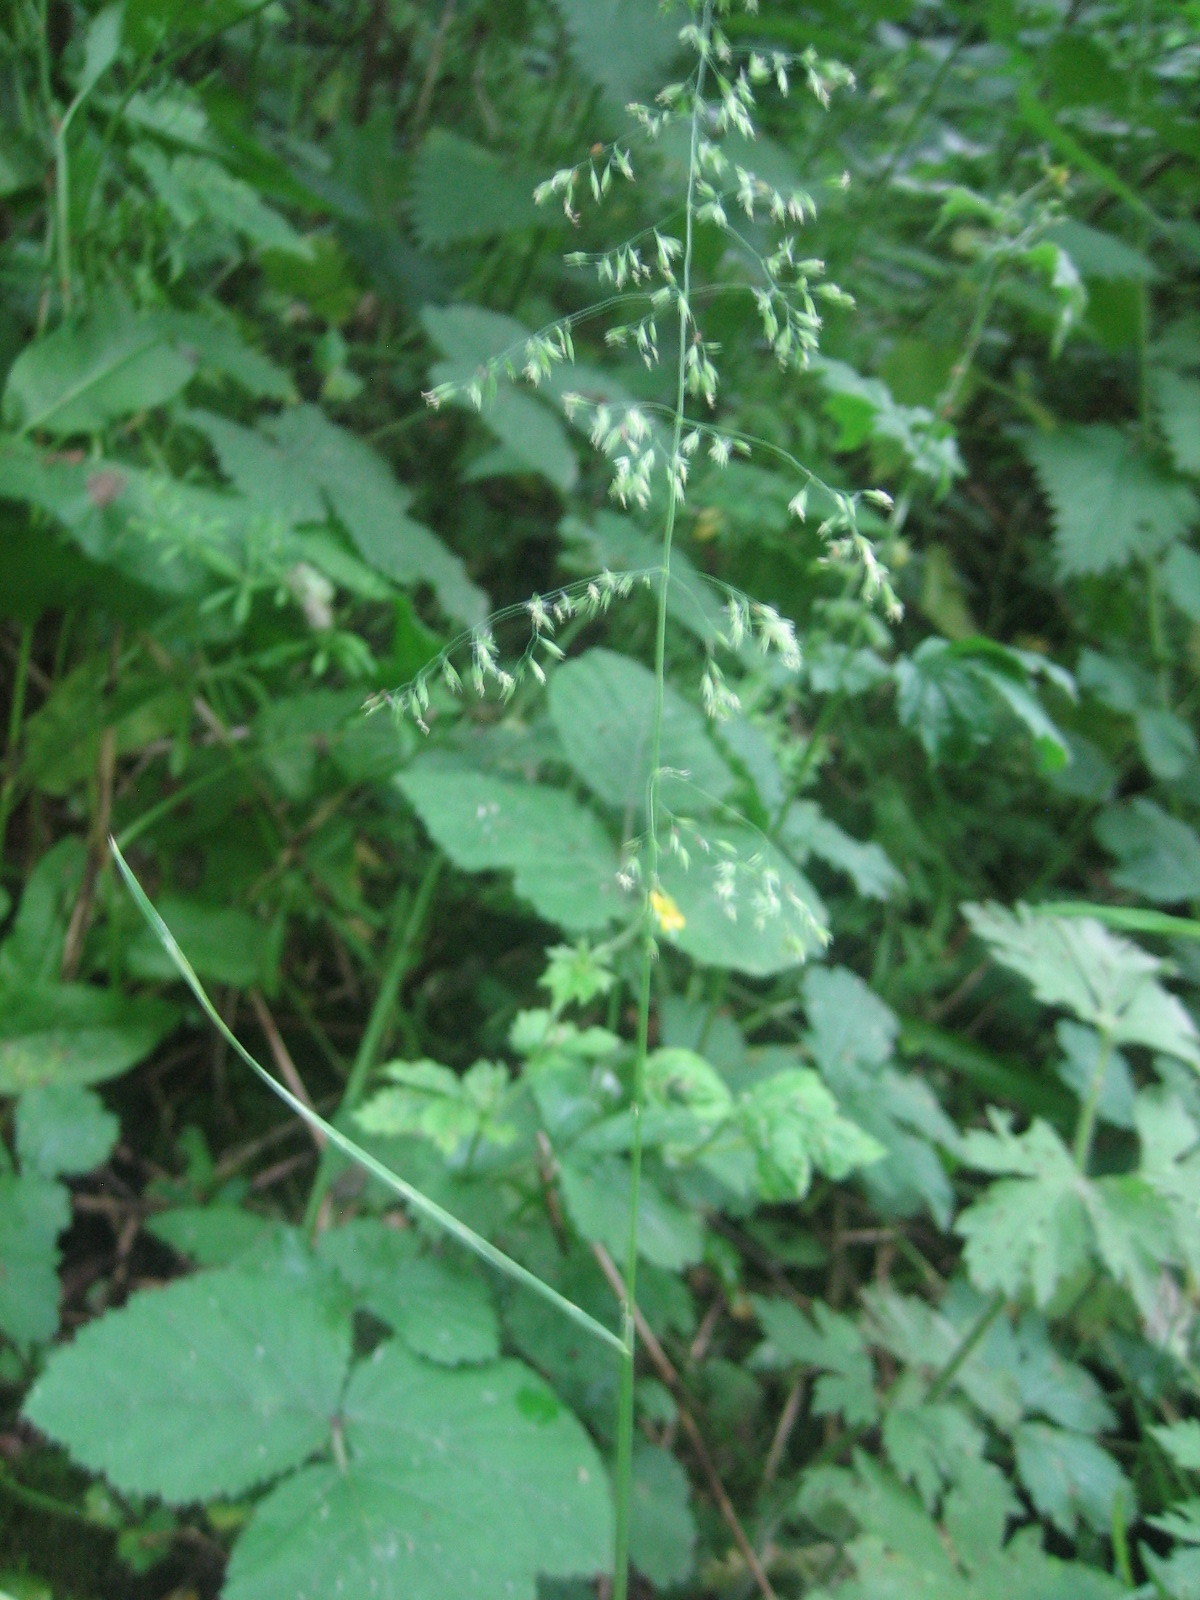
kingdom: Plantae
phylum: Tracheophyta
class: Liliopsida
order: Poales
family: Poaceae
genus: Poa
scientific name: Poa trivialis
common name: Rough bluegrass
